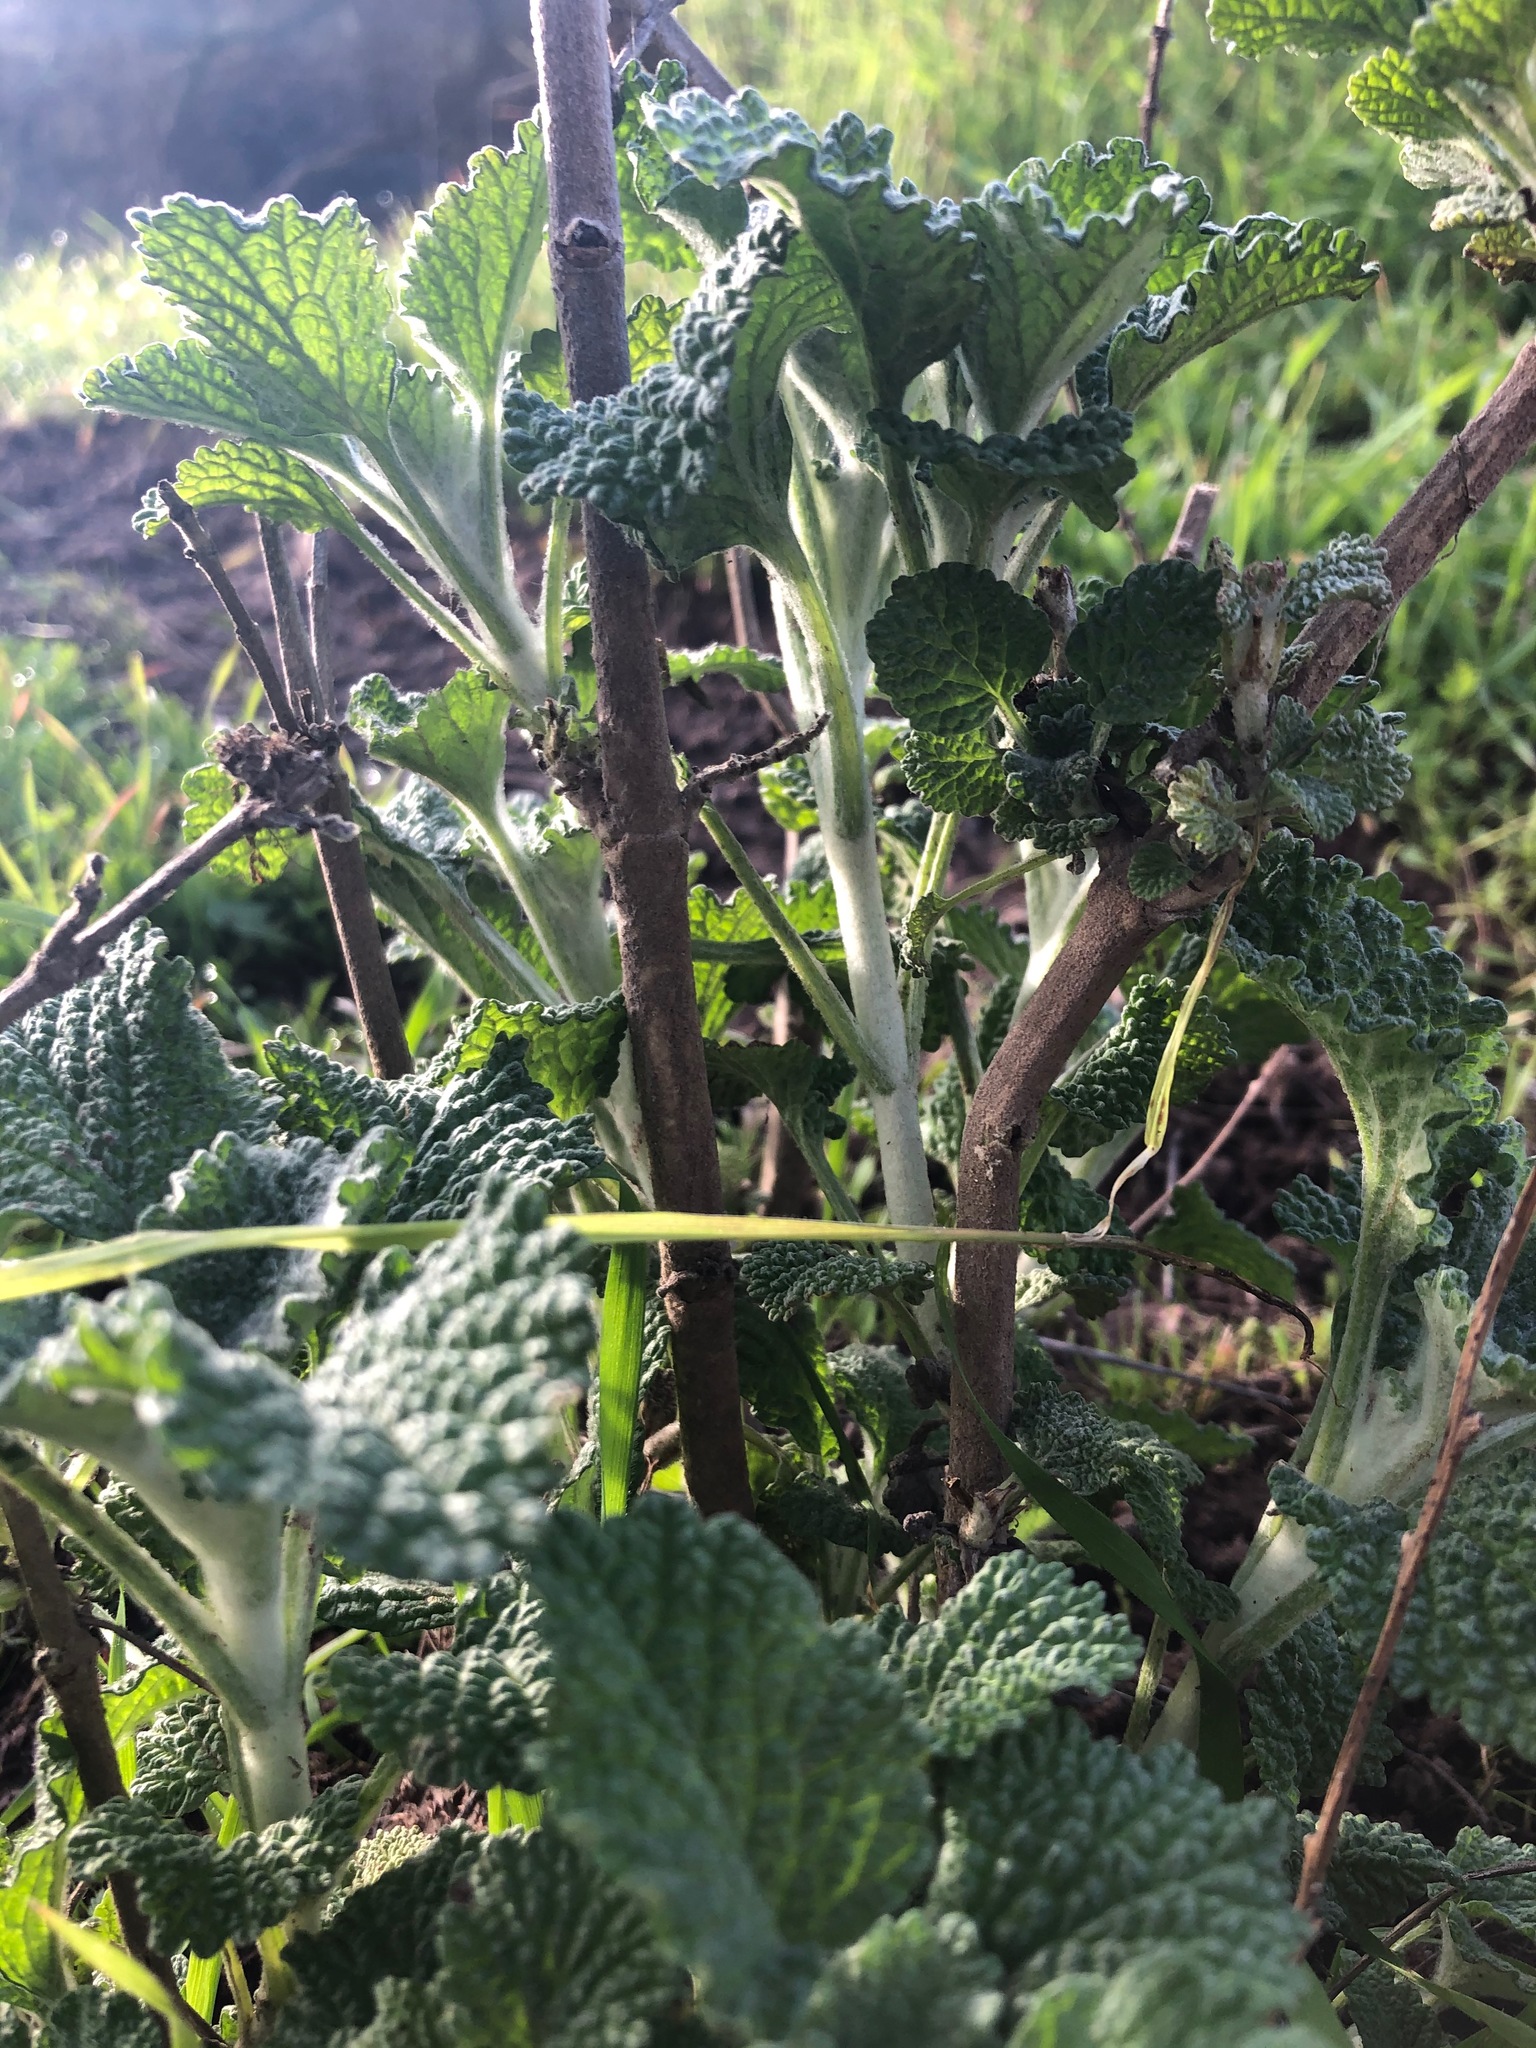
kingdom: Plantae
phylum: Tracheophyta
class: Magnoliopsida
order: Lamiales
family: Lamiaceae
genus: Marrubium
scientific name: Marrubium vulgare
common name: Horehound
